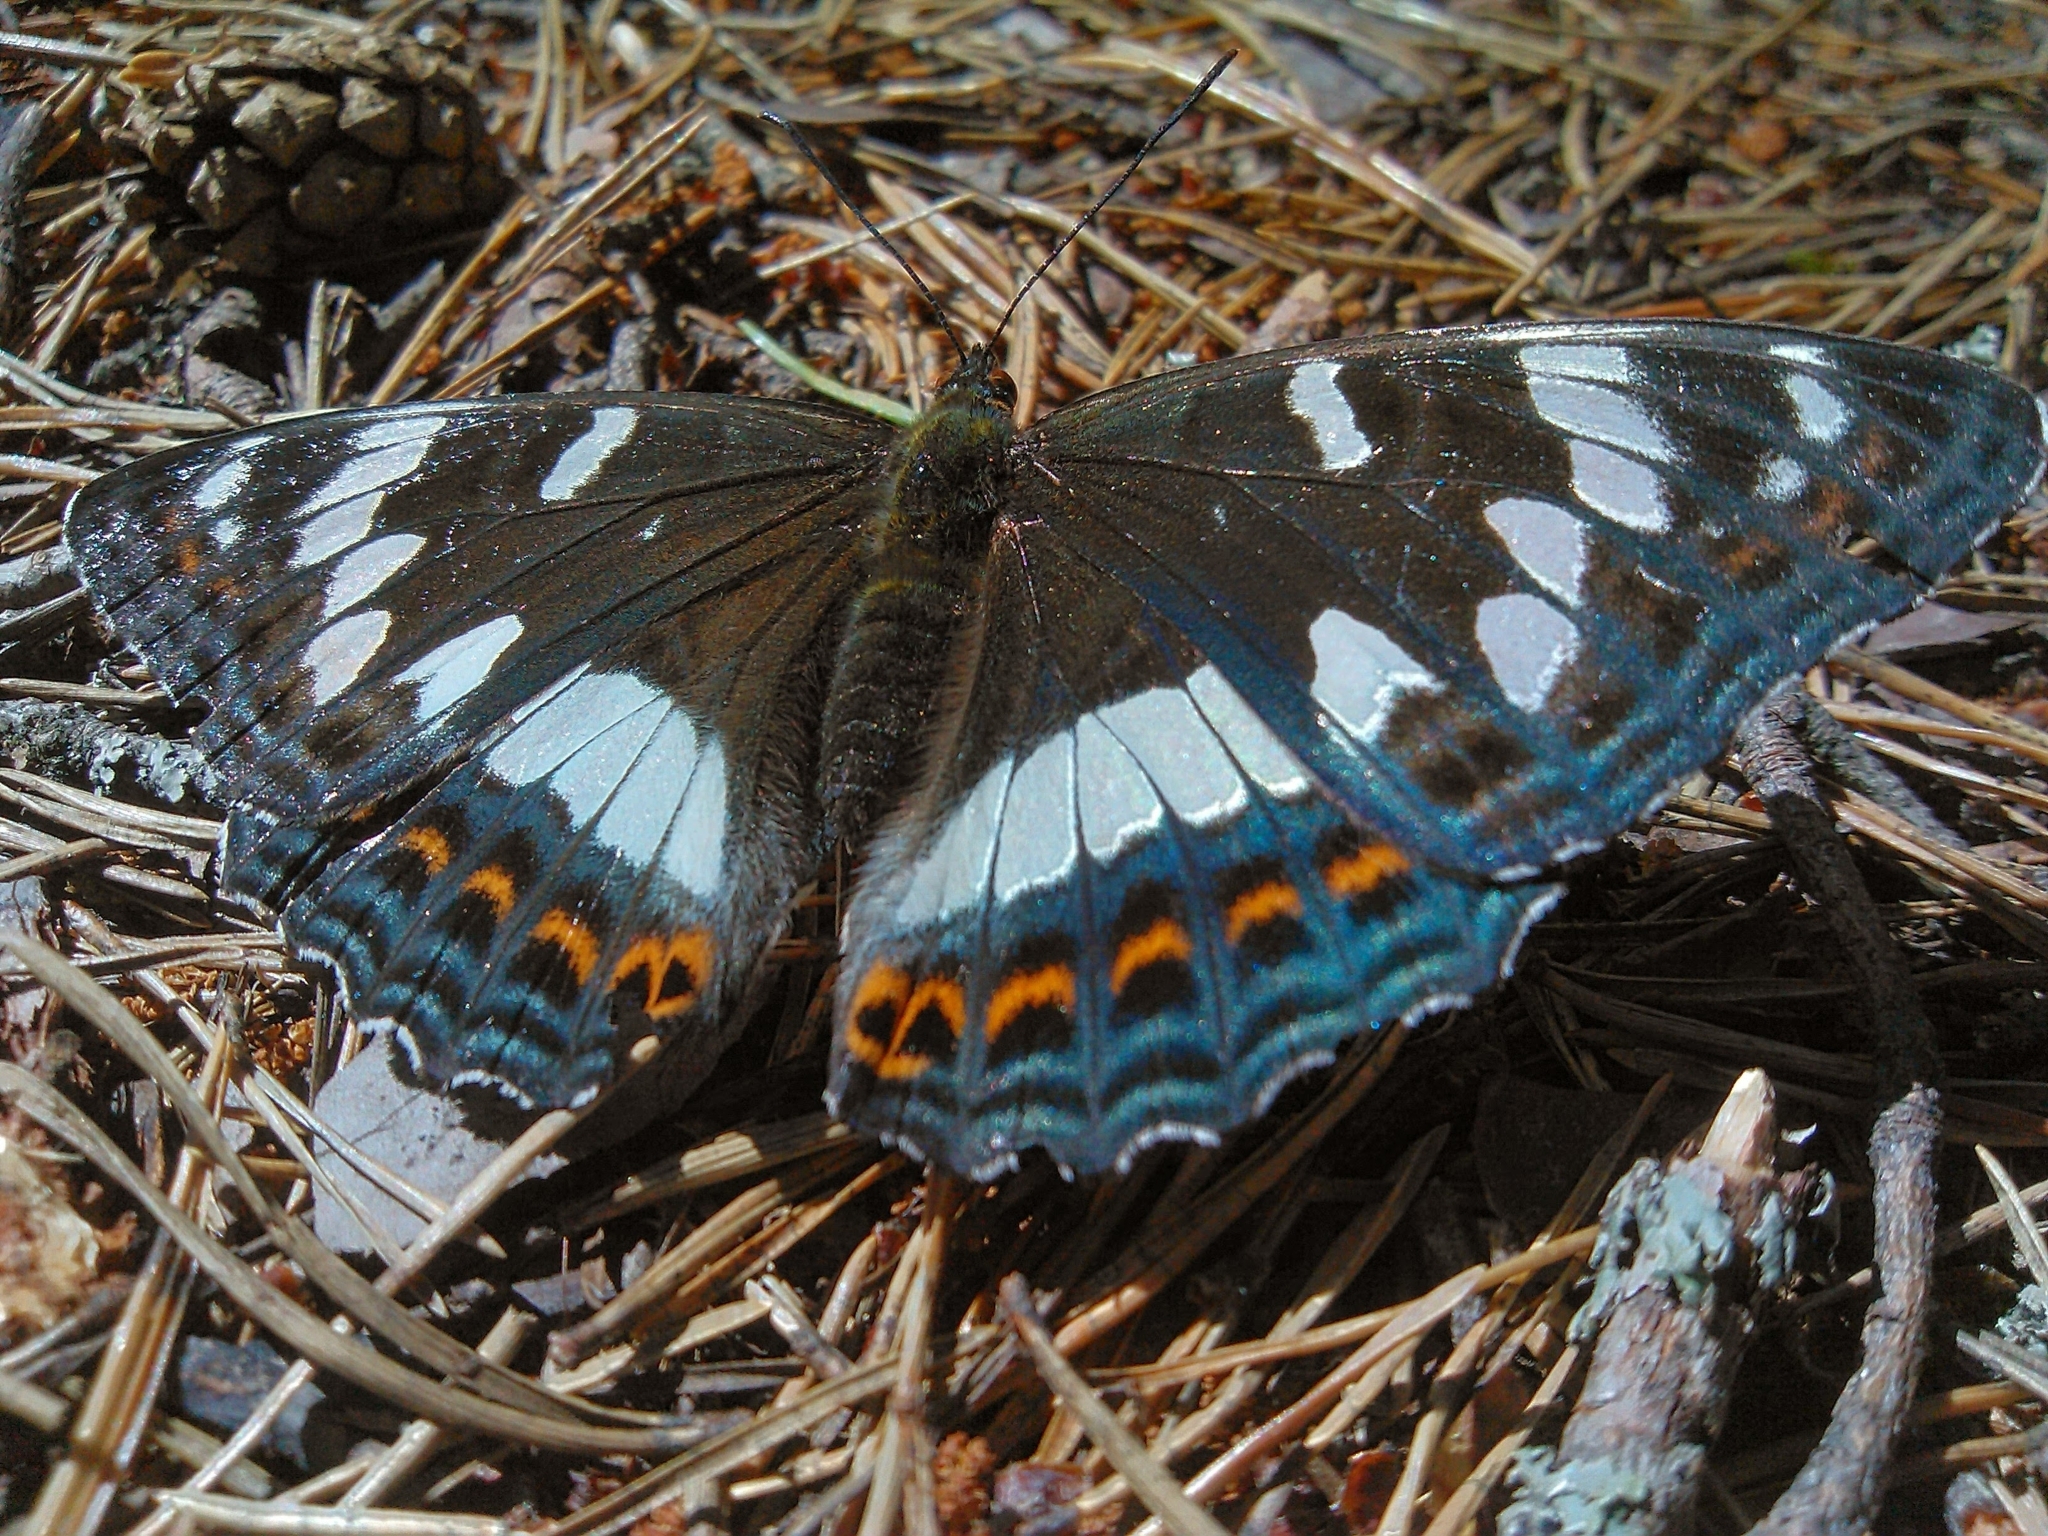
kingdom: Animalia
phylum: Arthropoda
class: Insecta
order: Lepidoptera
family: Nymphalidae
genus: Limenitis
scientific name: Limenitis populi
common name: Poplar admiral
